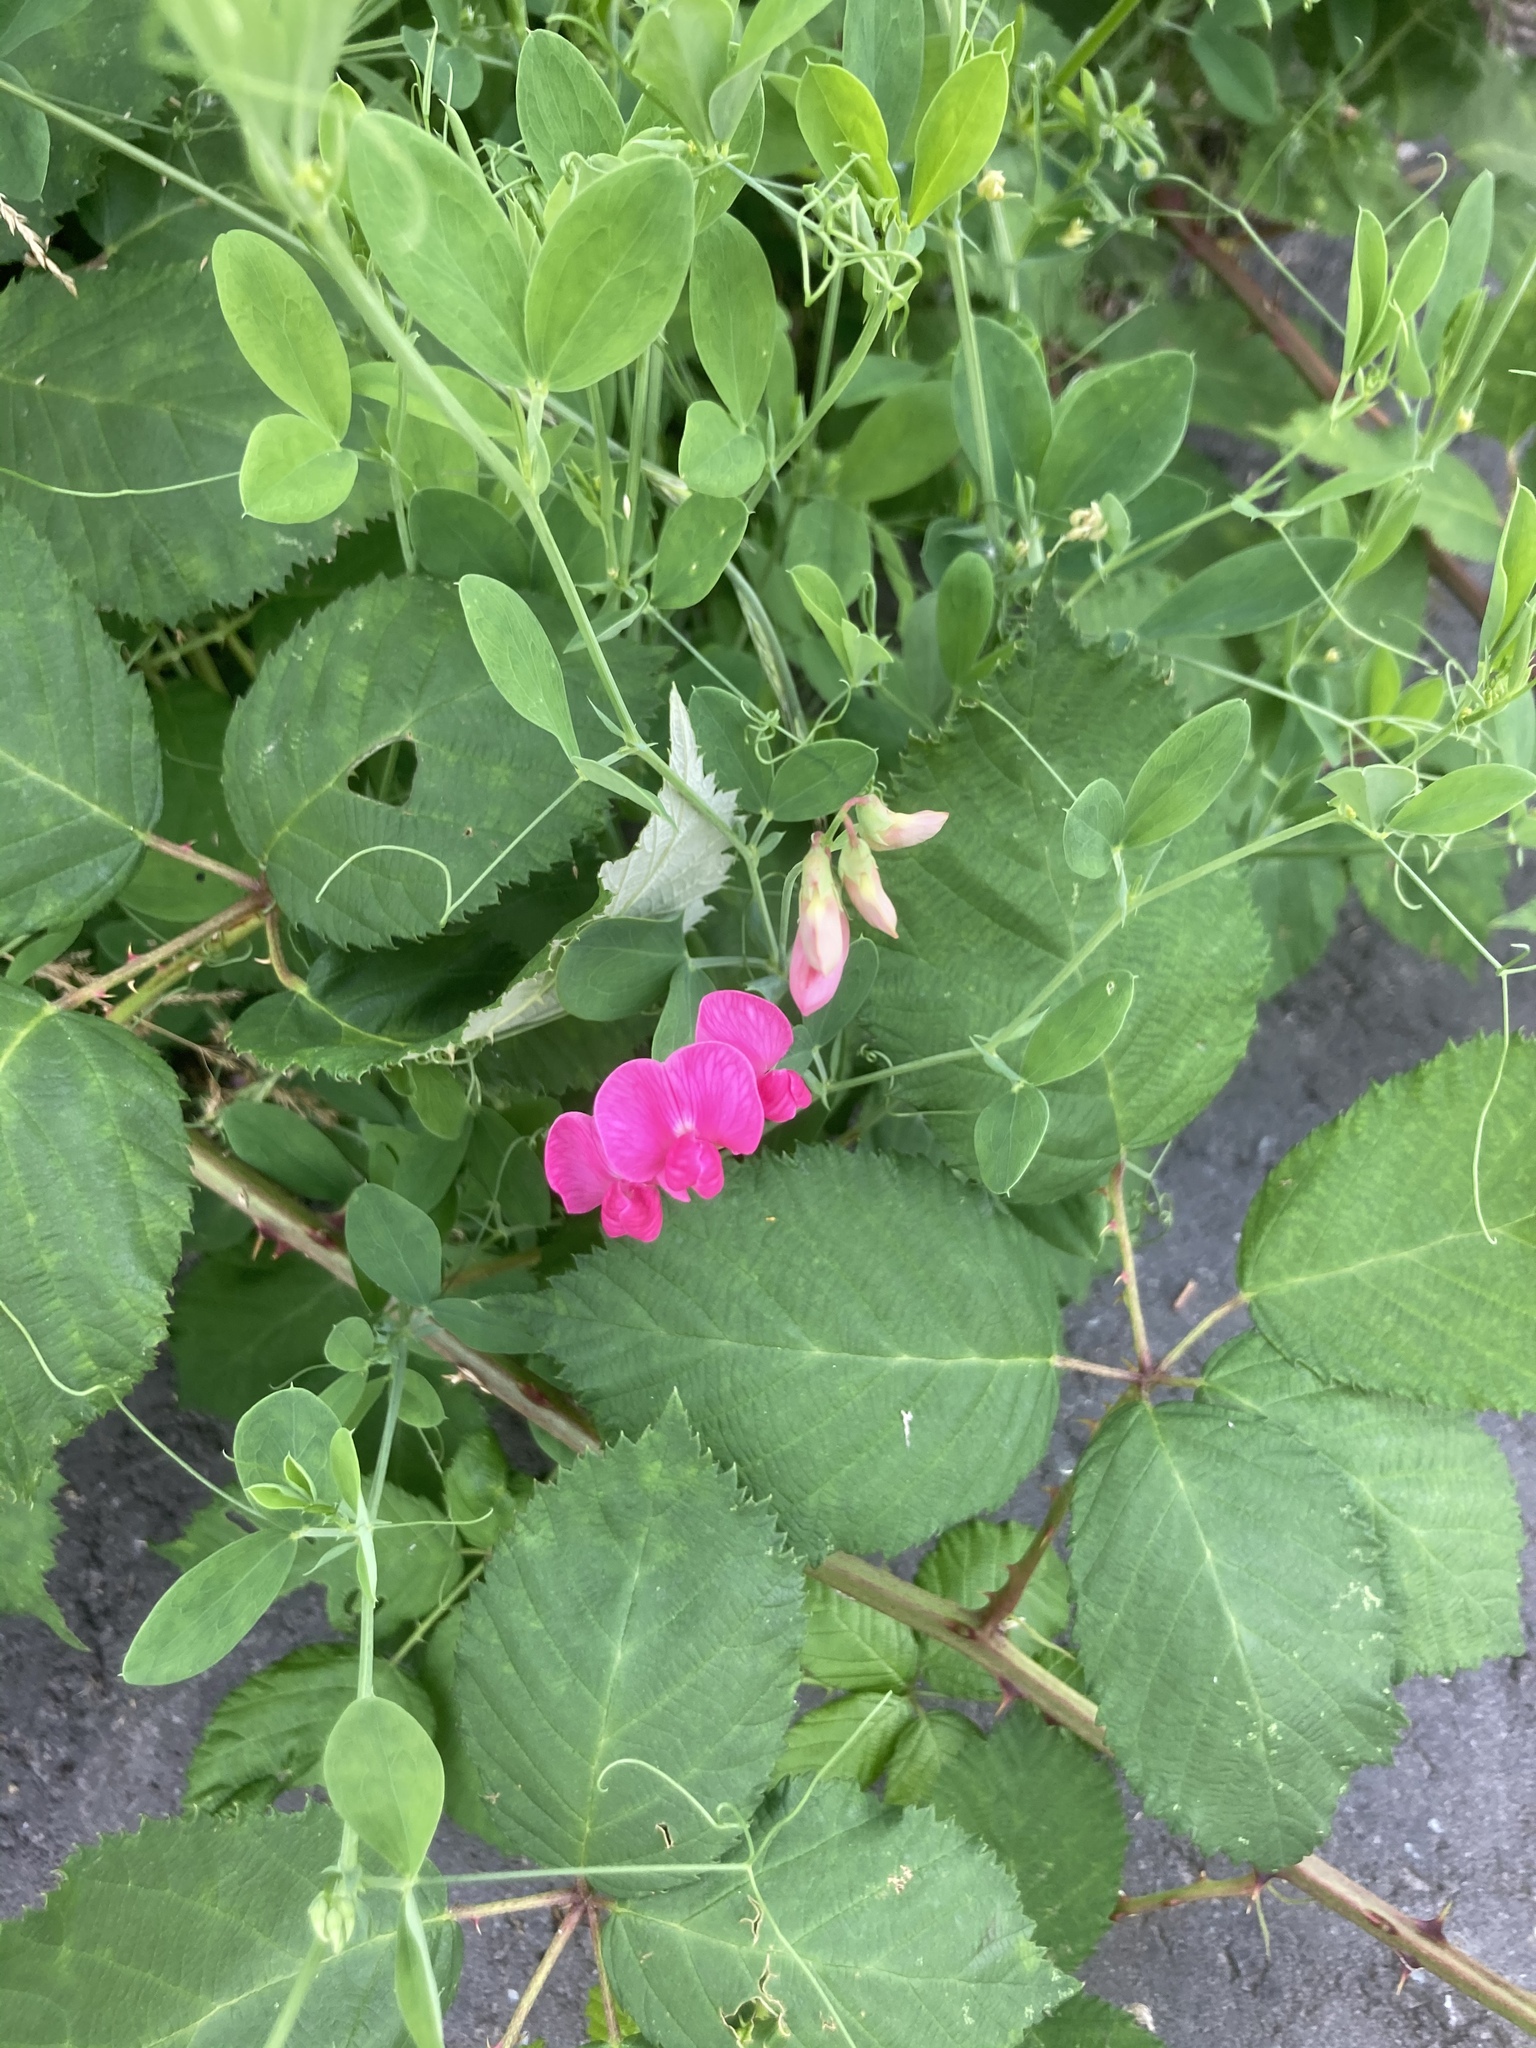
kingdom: Plantae
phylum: Tracheophyta
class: Magnoliopsida
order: Fabales
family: Fabaceae
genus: Lathyrus
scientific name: Lathyrus tuberosus
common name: Tuberous pea
